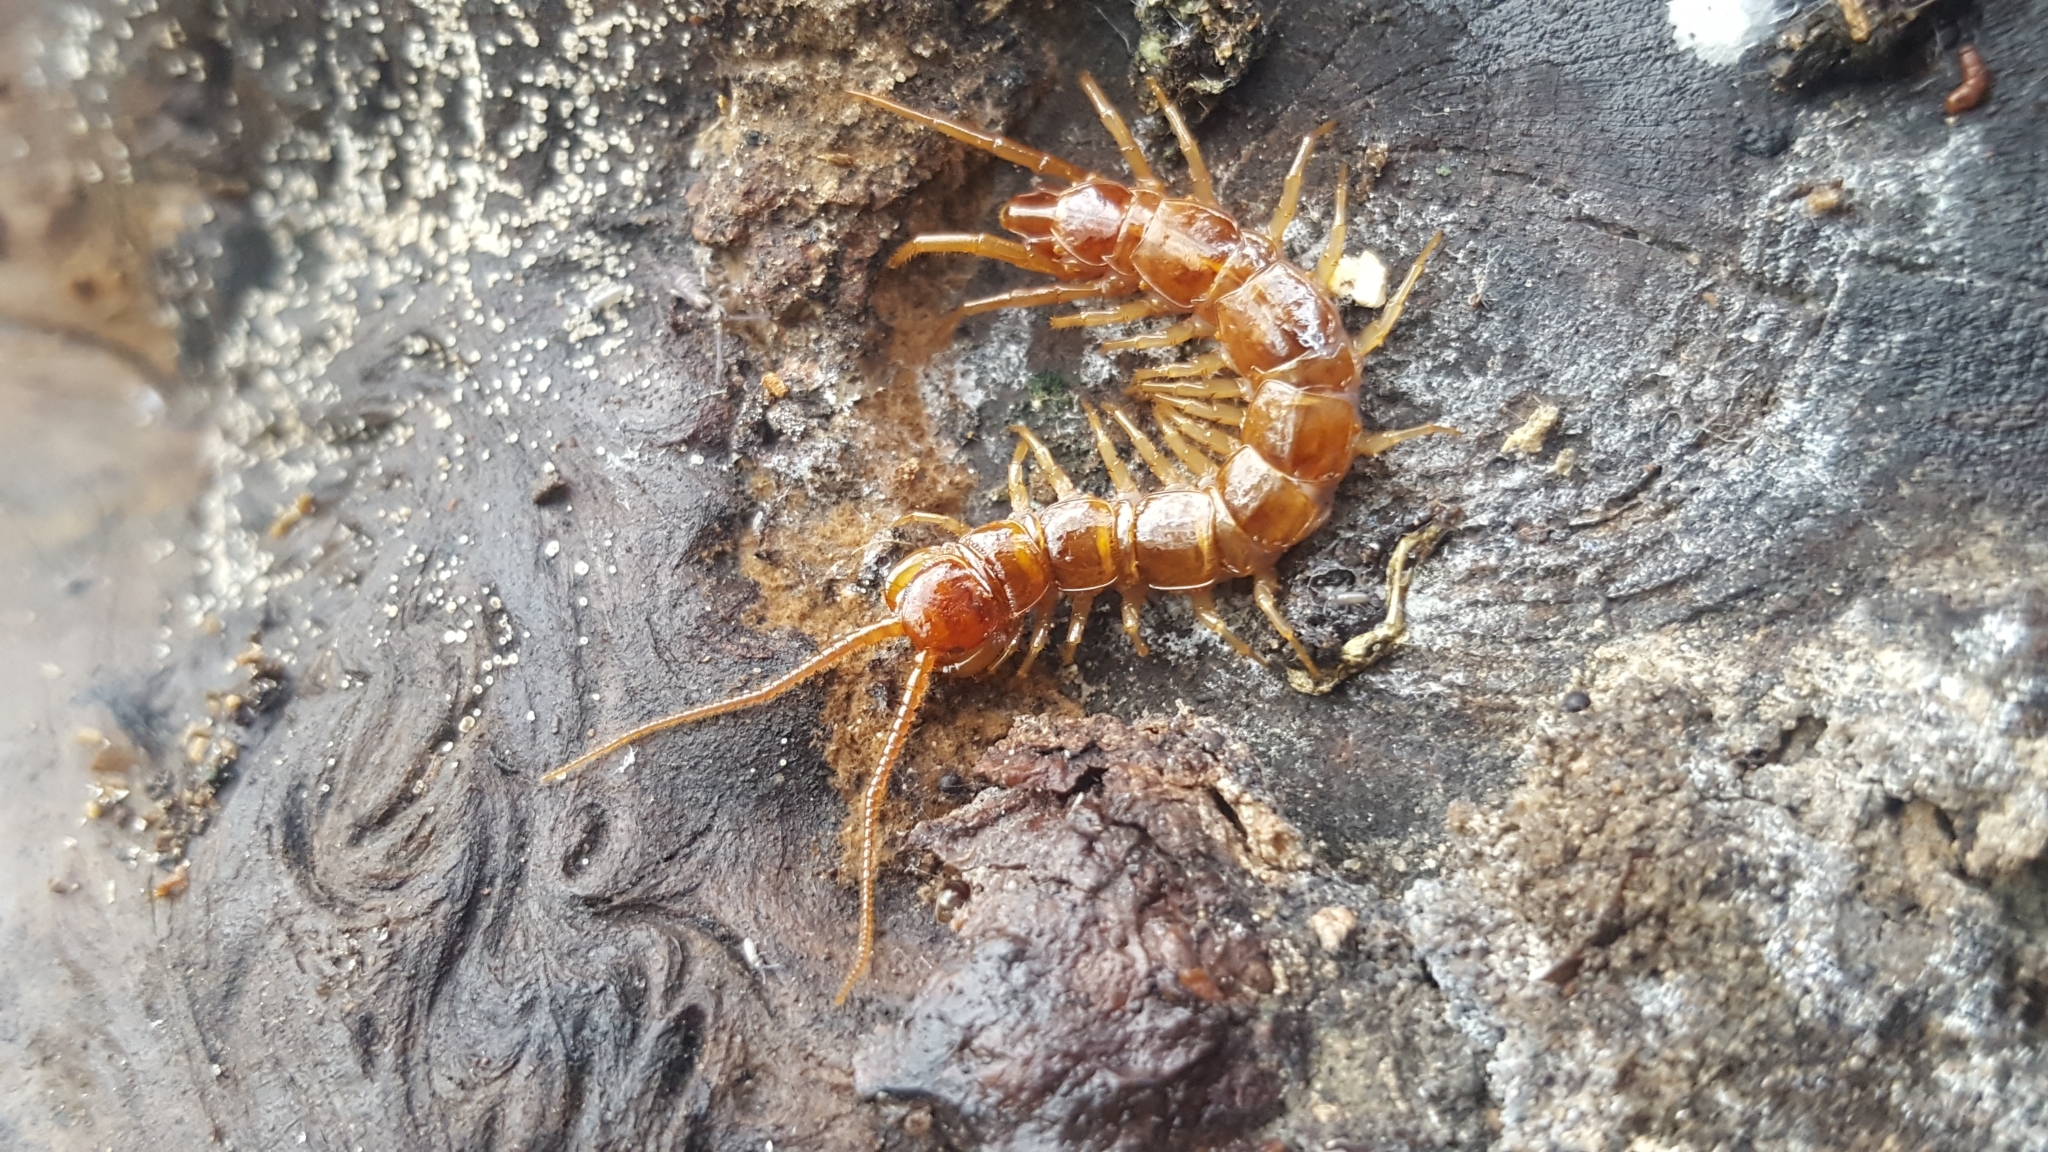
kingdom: Animalia
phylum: Arthropoda
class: Chilopoda
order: Lithobiomorpha
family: Lithobiidae
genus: Lithobius
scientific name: Lithobius forficatus
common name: Centipede
